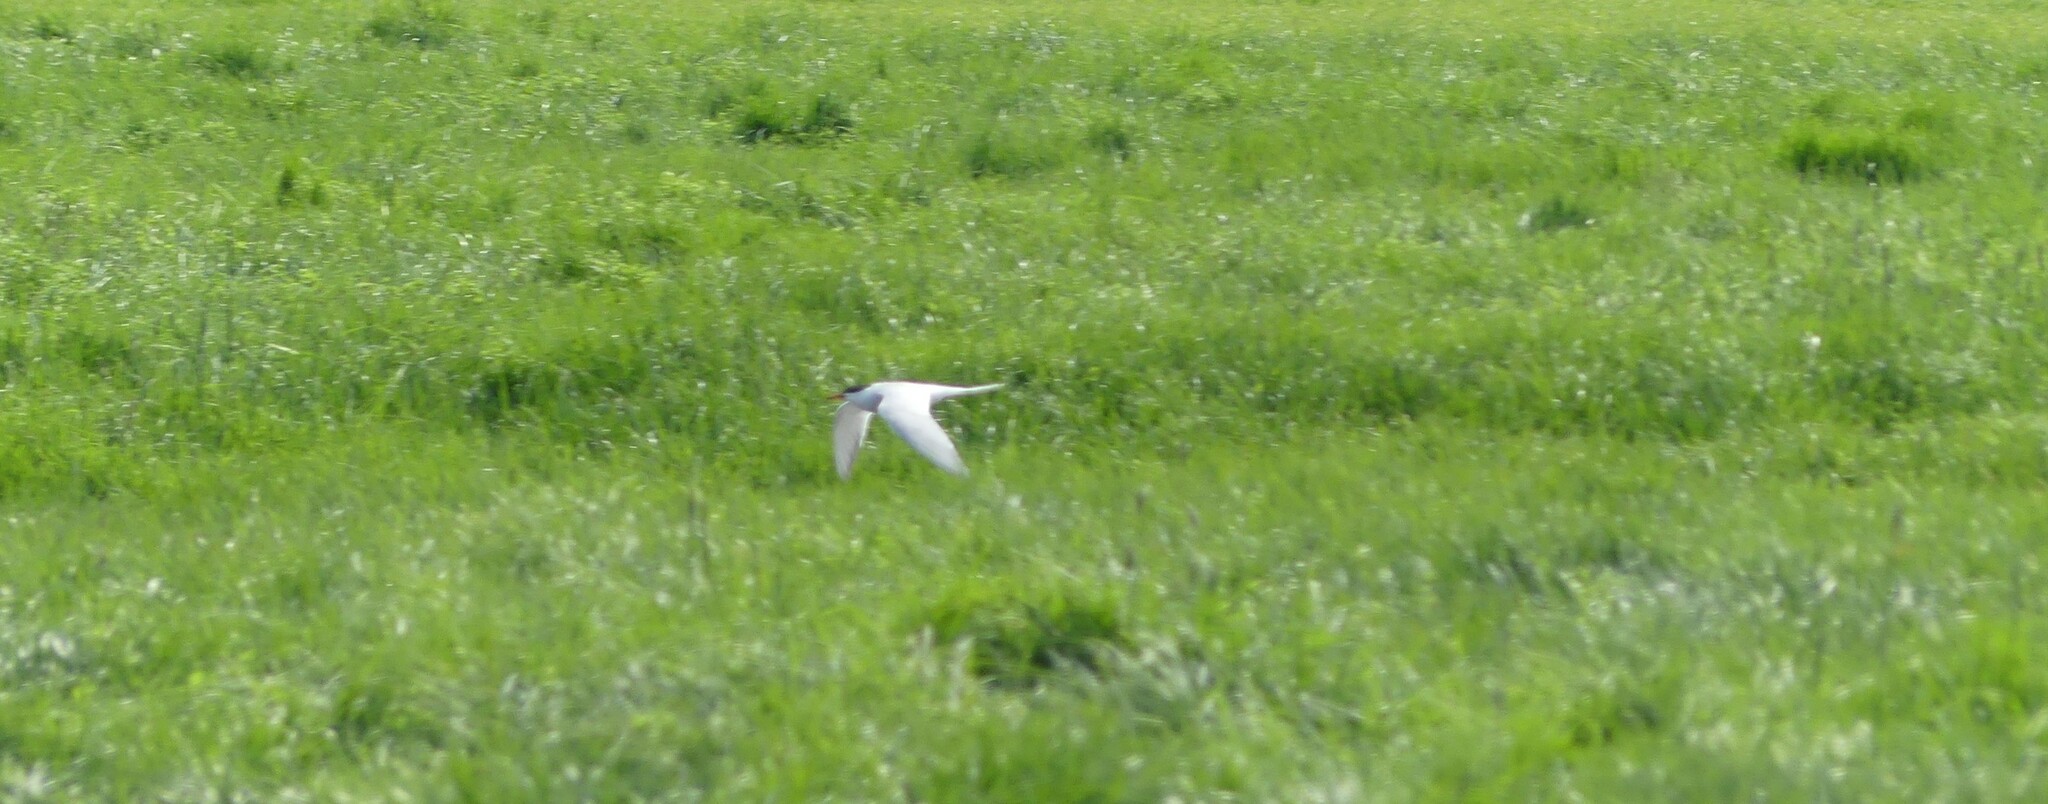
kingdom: Animalia
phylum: Chordata
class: Aves
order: Charadriiformes
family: Laridae
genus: Sterna
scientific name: Sterna hirundo
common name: Common tern
